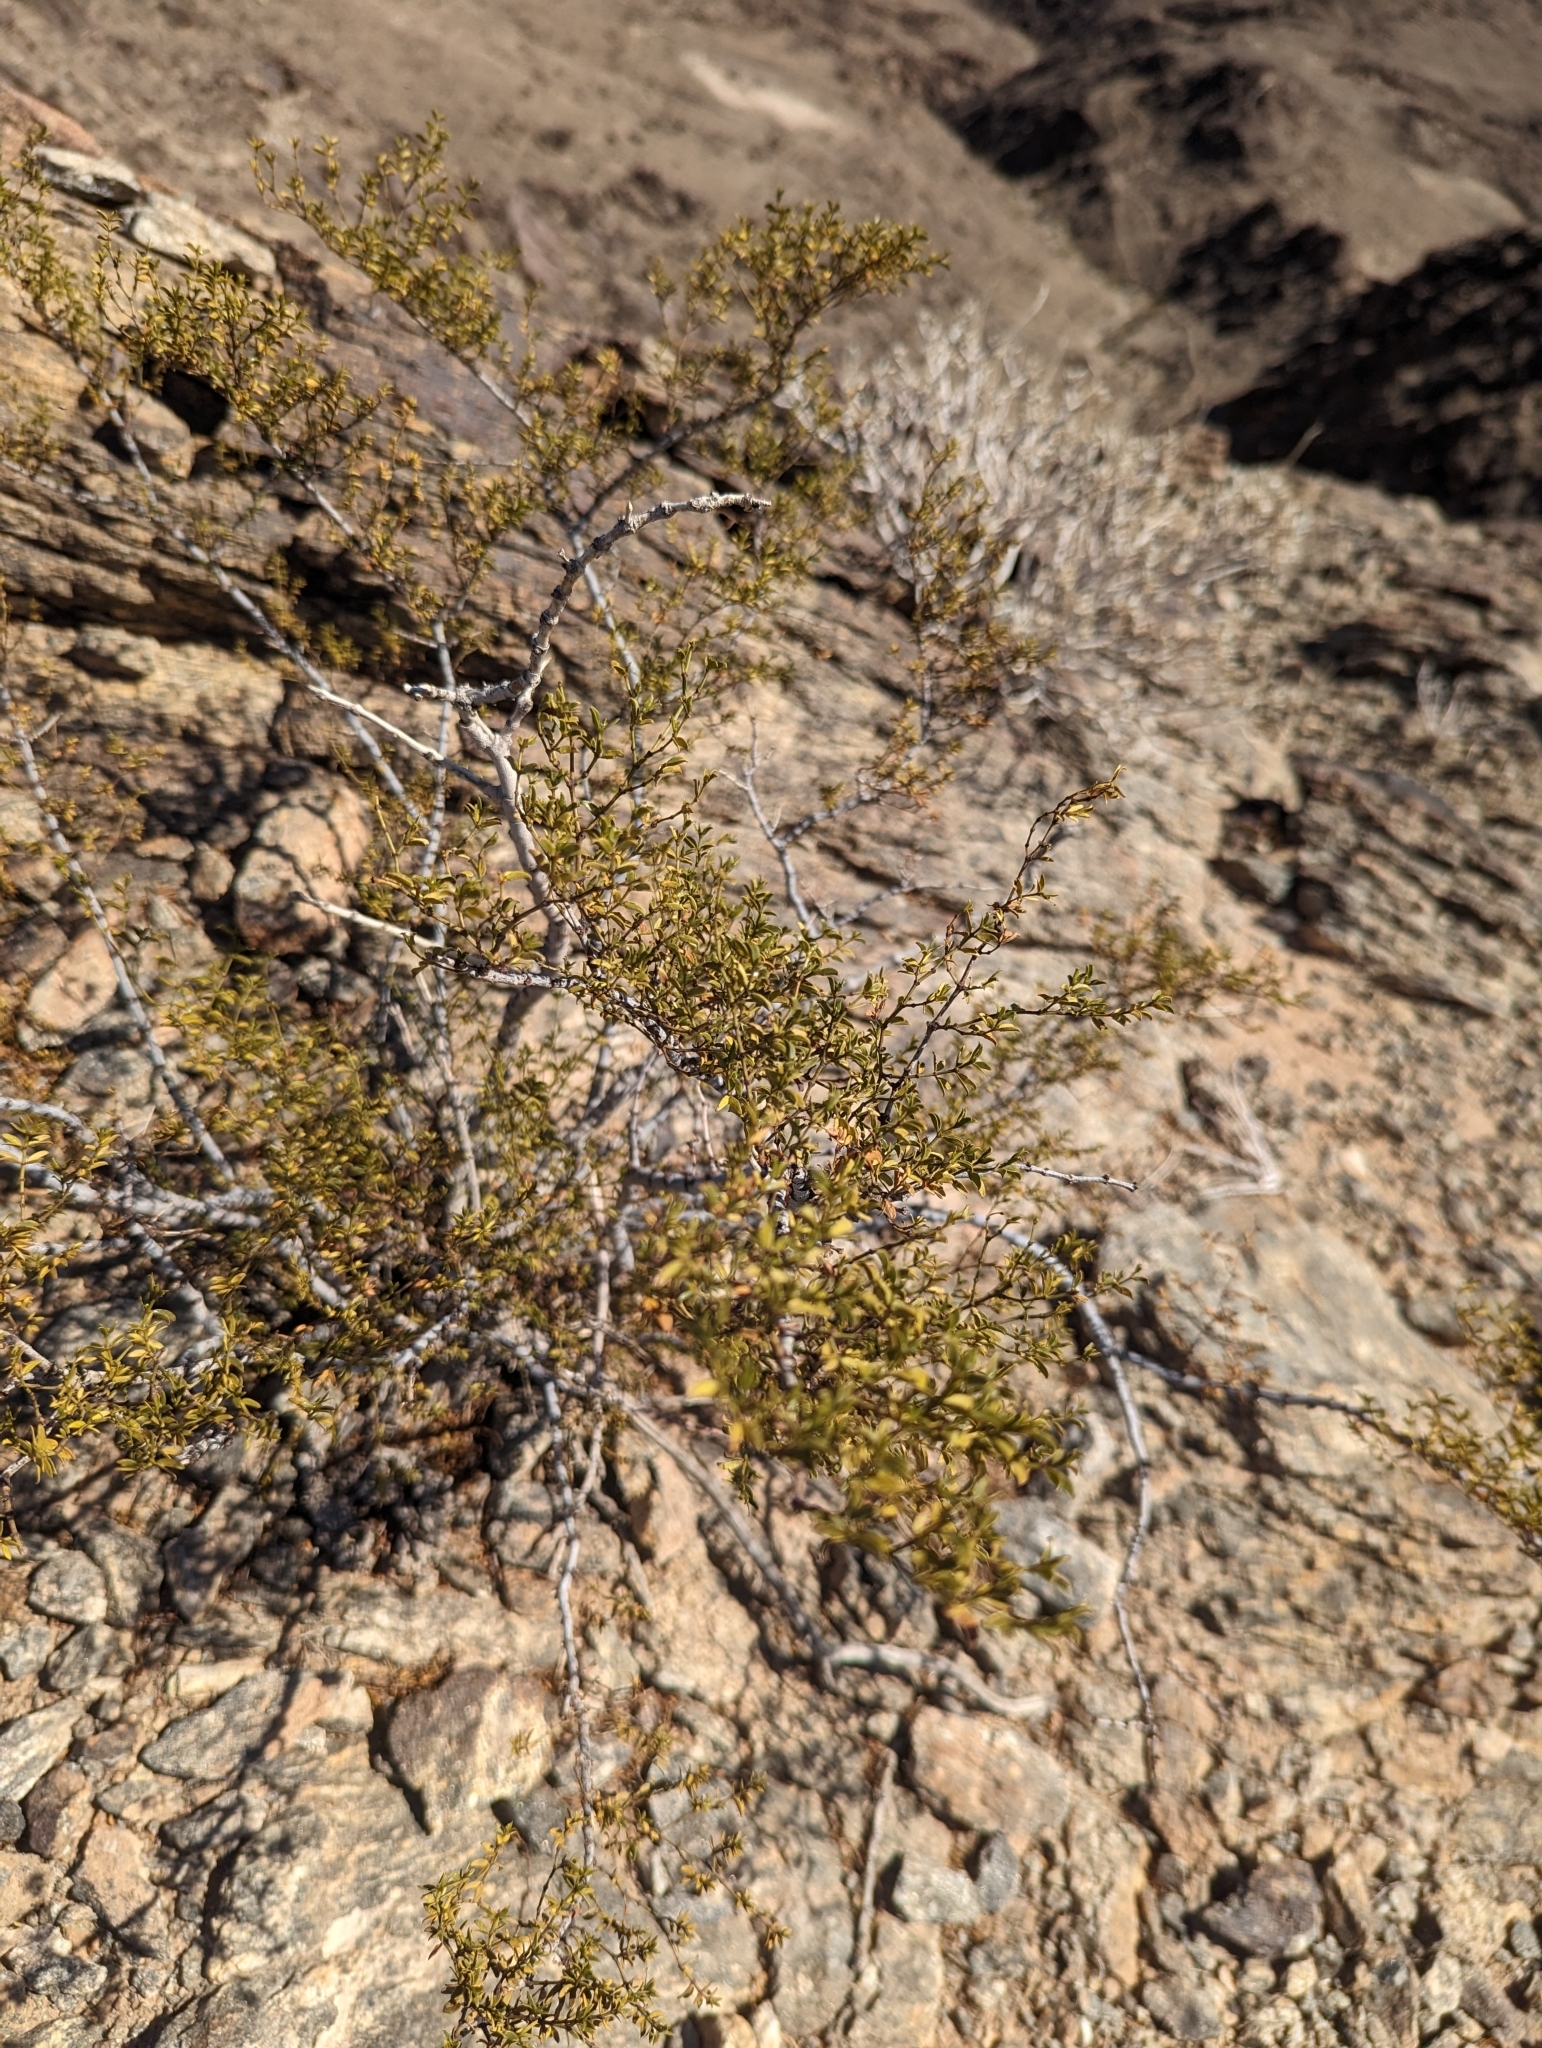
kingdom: Plantae
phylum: Tracheophyta
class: Magnoliopsida
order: Zygophyllales
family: Zygophyllaceae
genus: Larrea
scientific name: Larrea tridentata
